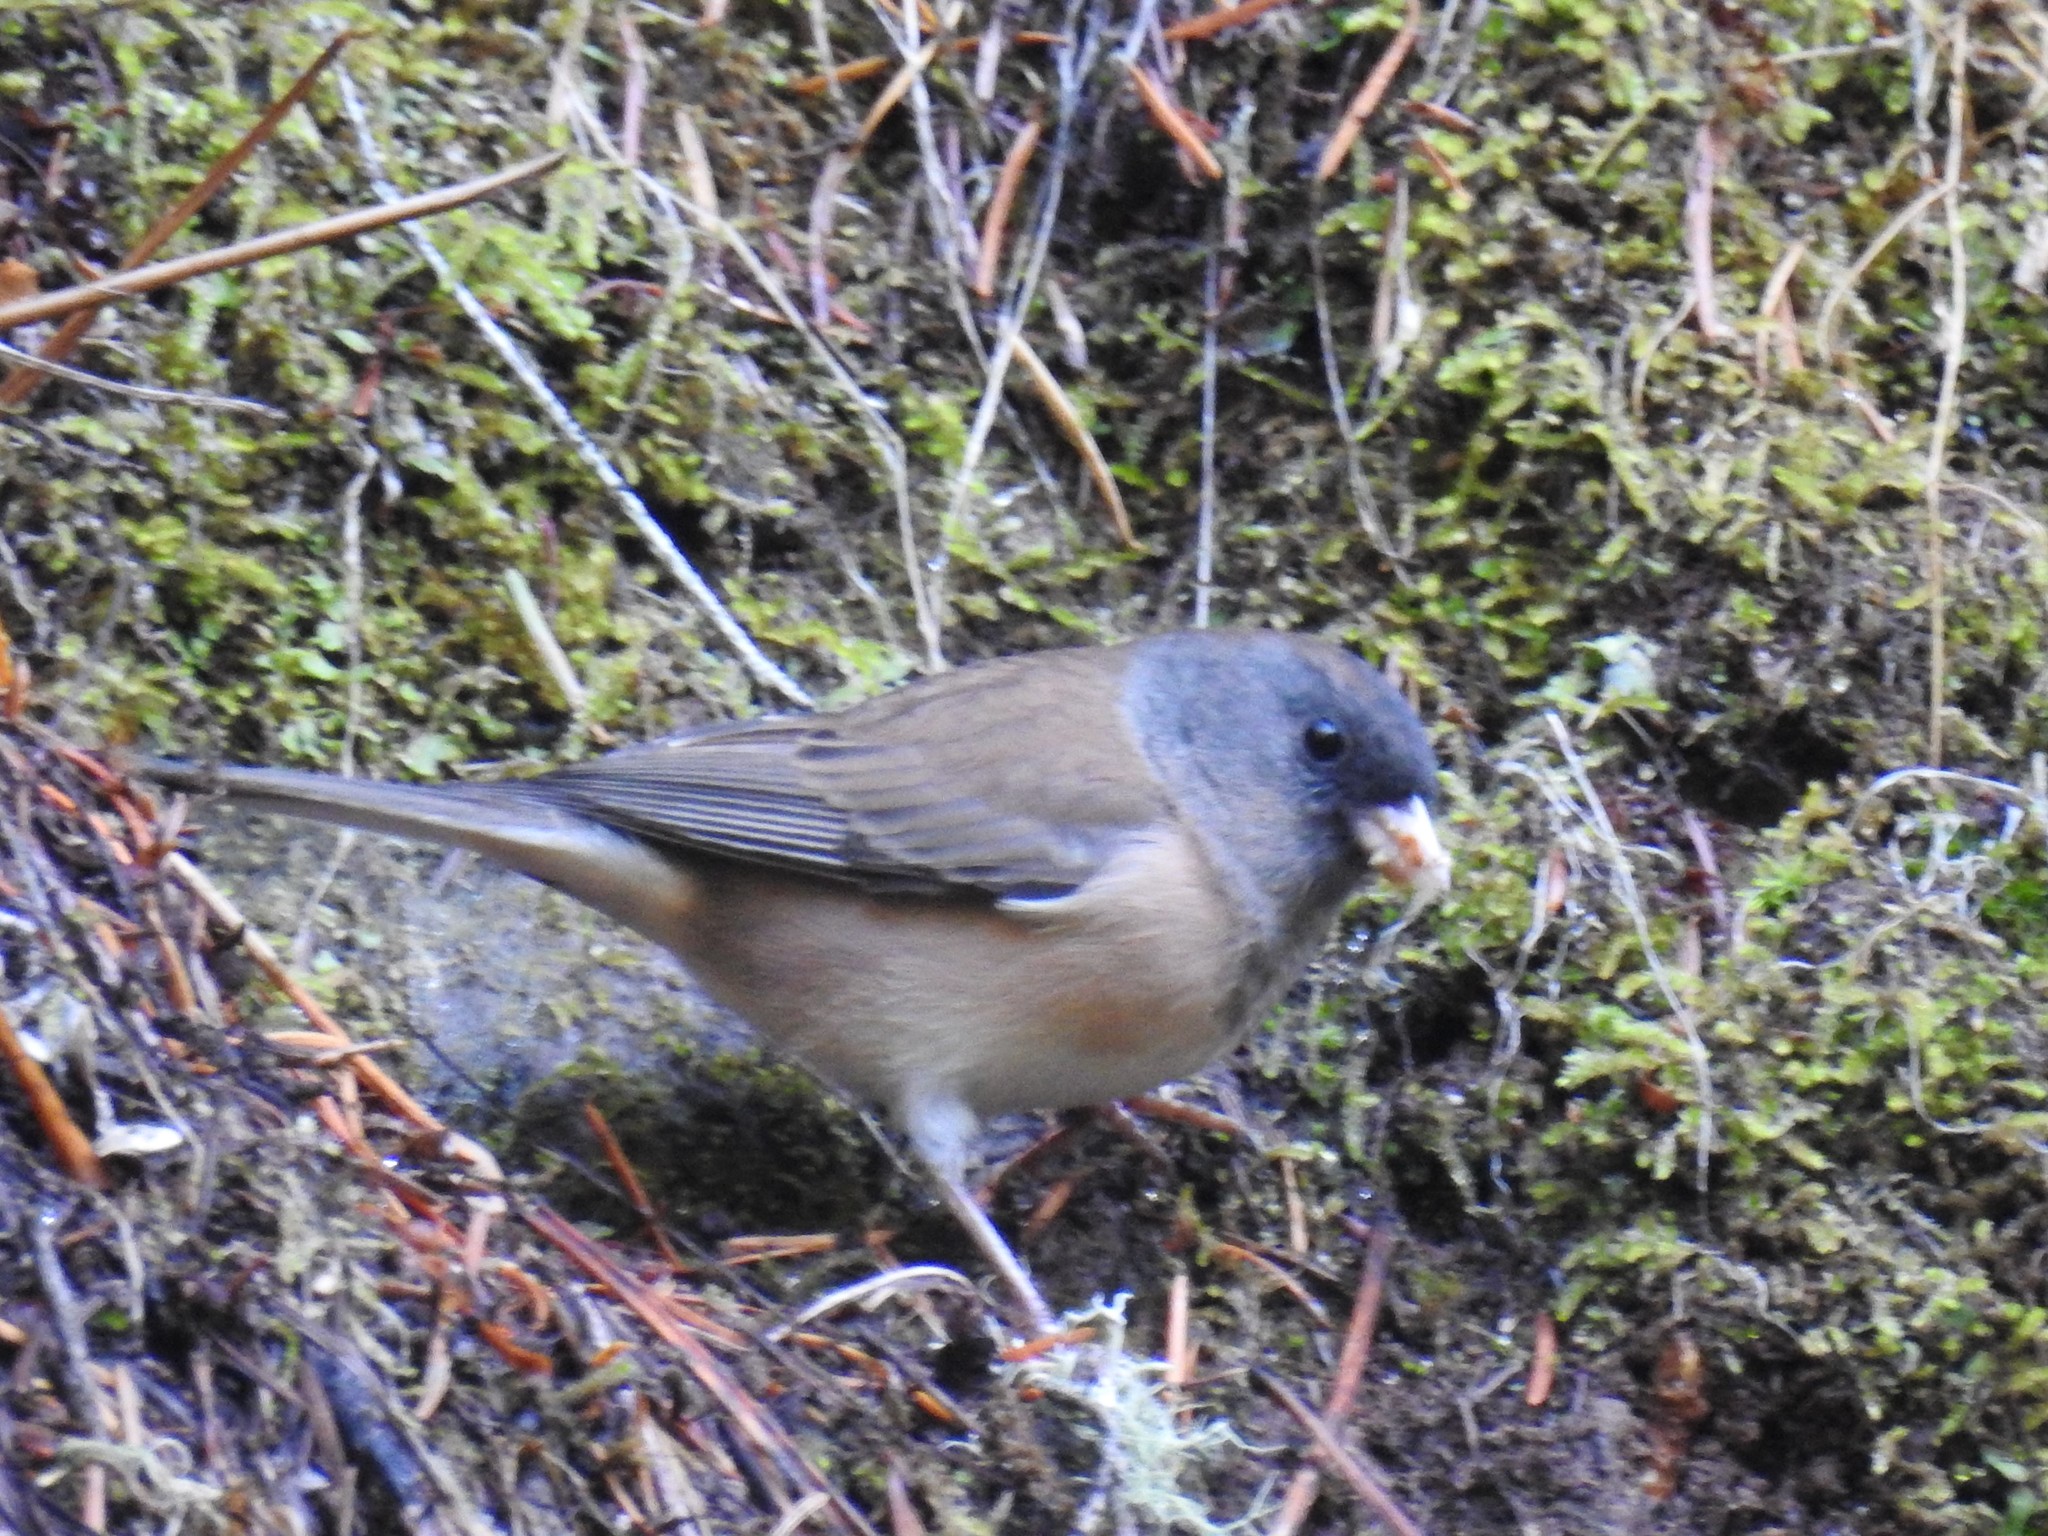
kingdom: Animalia
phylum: Chordata
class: Aves
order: Passeriformes
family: Passerellidae
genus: Junco
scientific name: Junco hyemalis
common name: Dark-eyed junco
